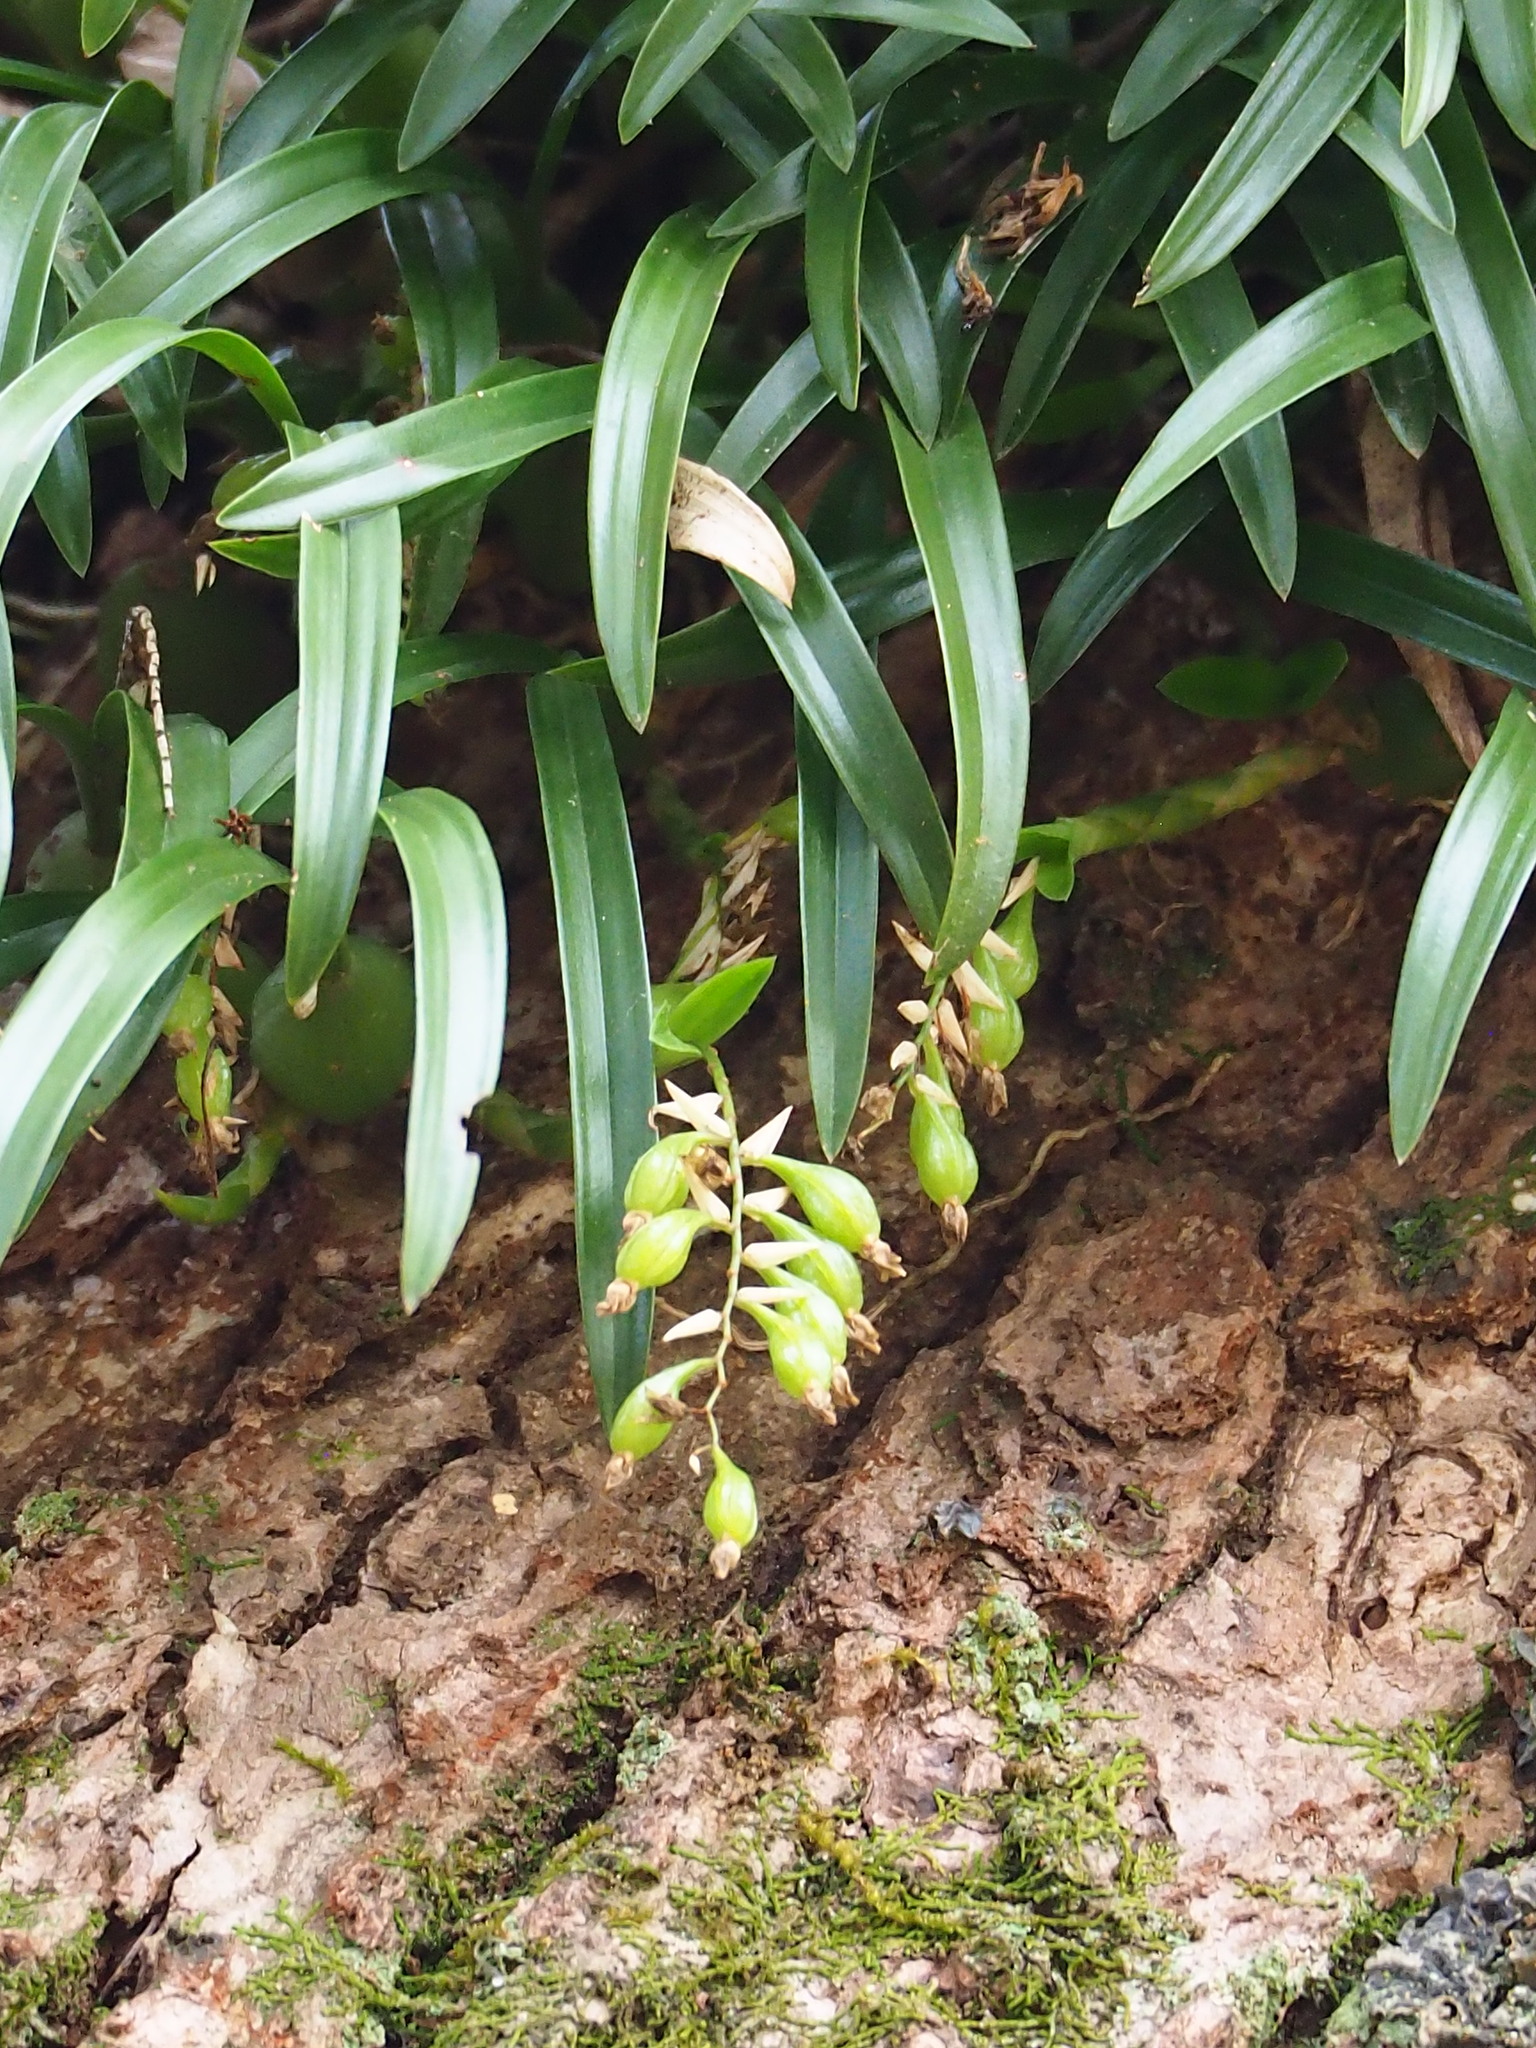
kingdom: Plantae
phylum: Tracheophyta
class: Liliopsida
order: Asparagales
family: Orchidaceae
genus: Coelogyne
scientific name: Coelogyne cantonensis
